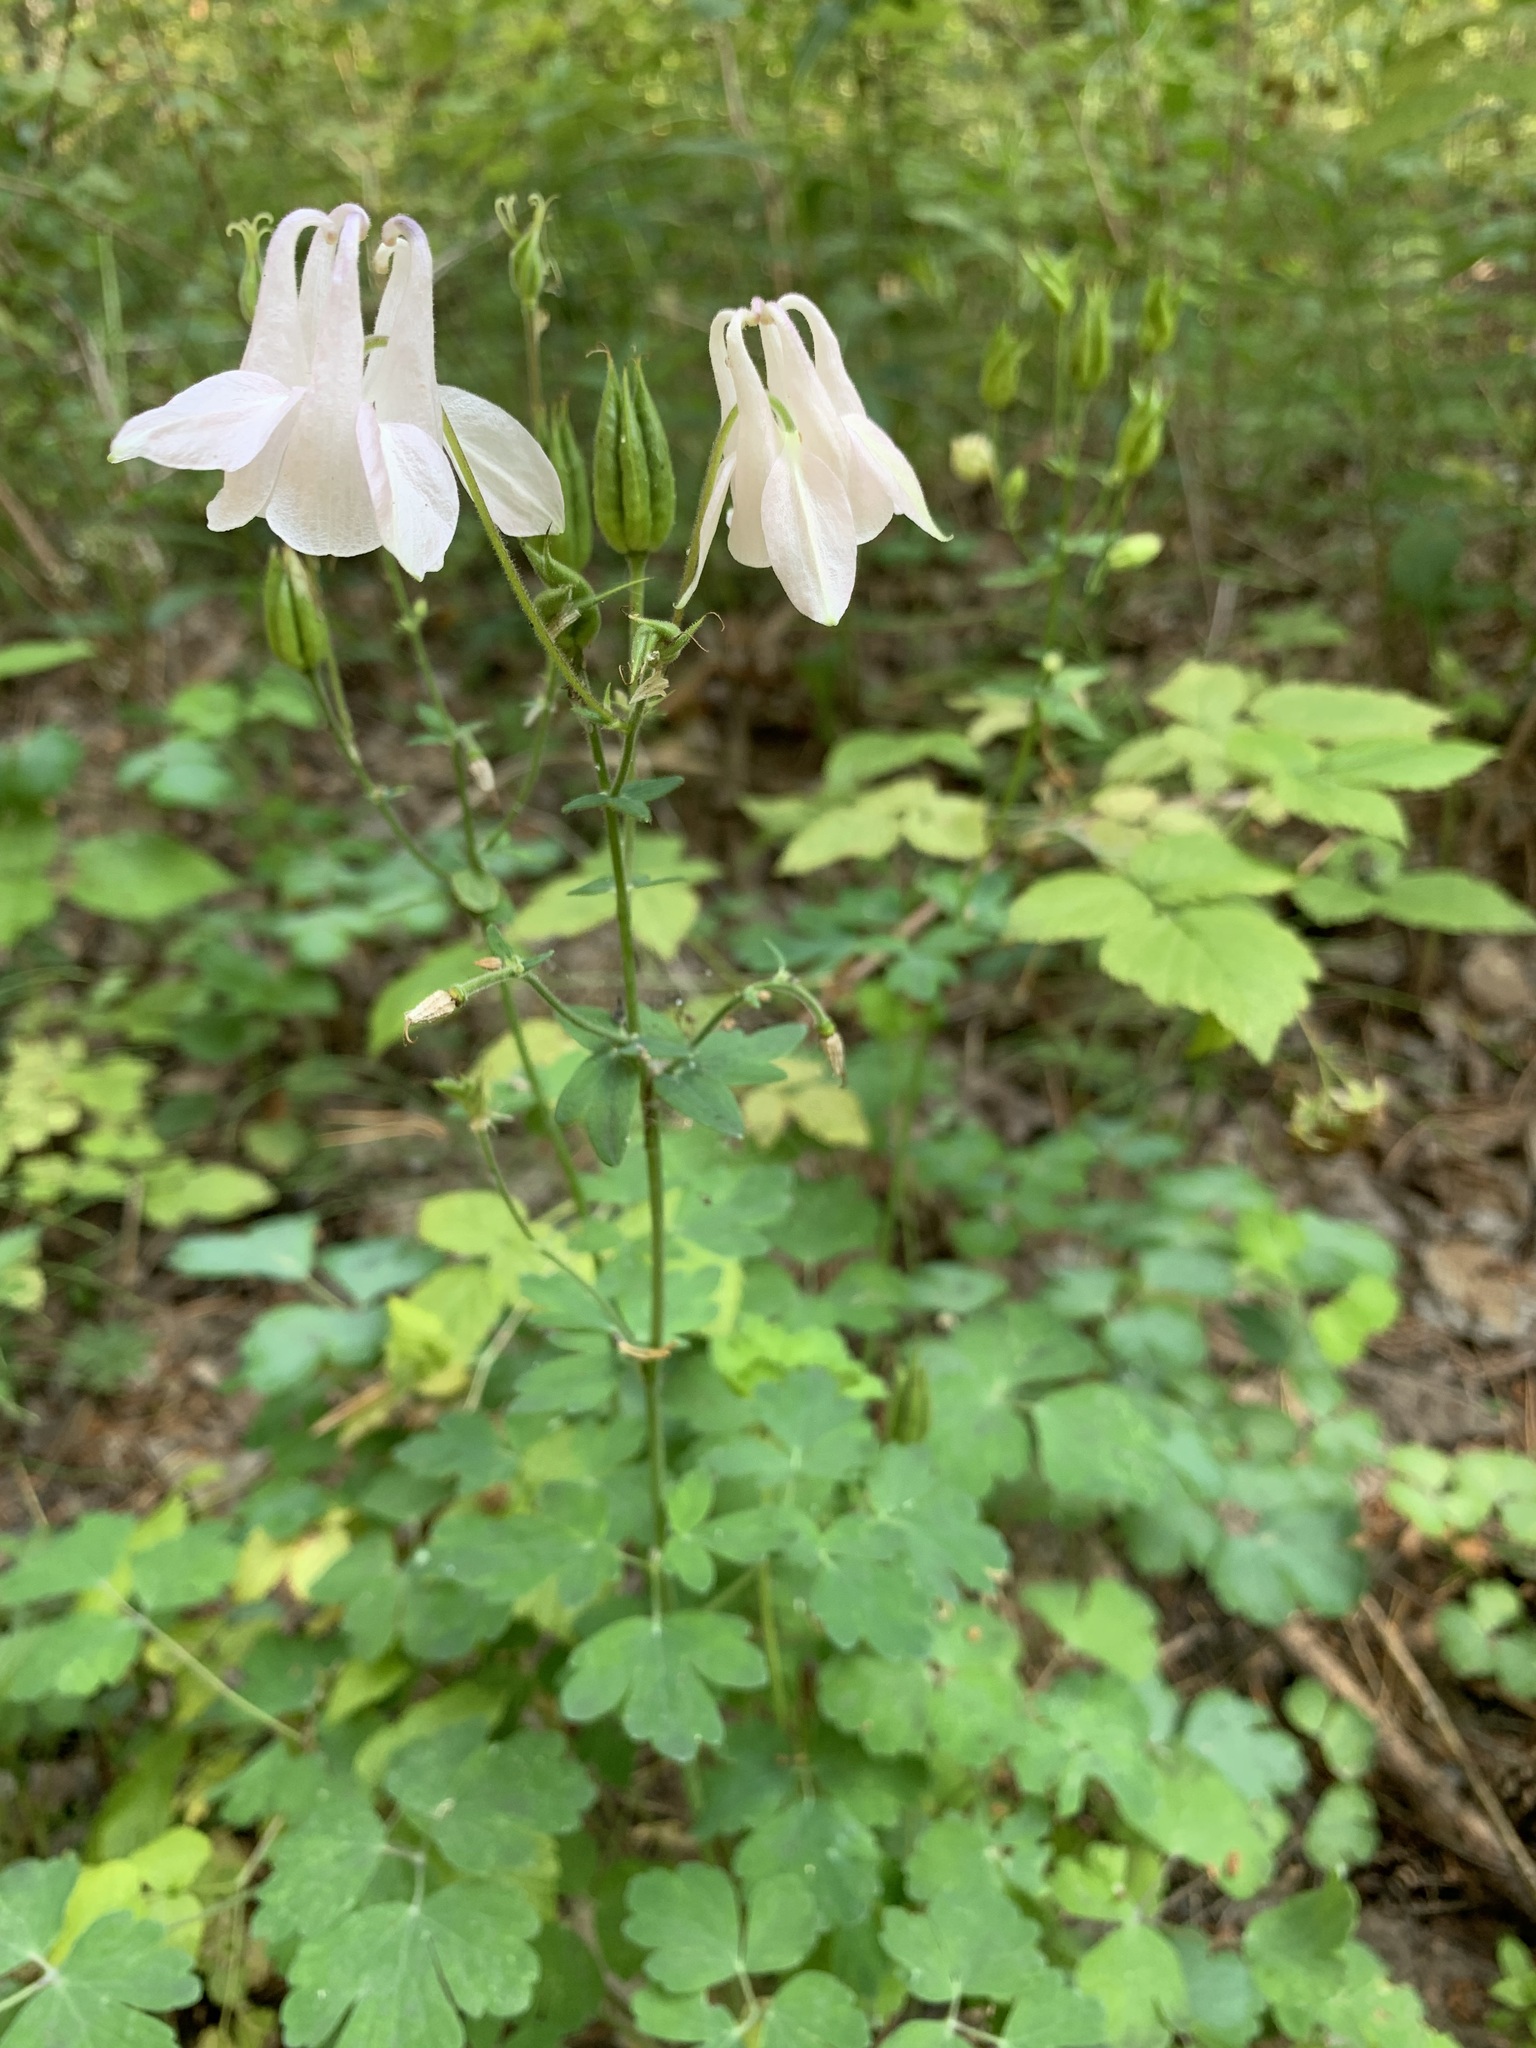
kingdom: Plantae
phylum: Tracheophyta
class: Magnoliopsida
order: Ranunculales
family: Ranunculaceae
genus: Aquilegia
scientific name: Aquilegia vulgaris
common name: Columbine
